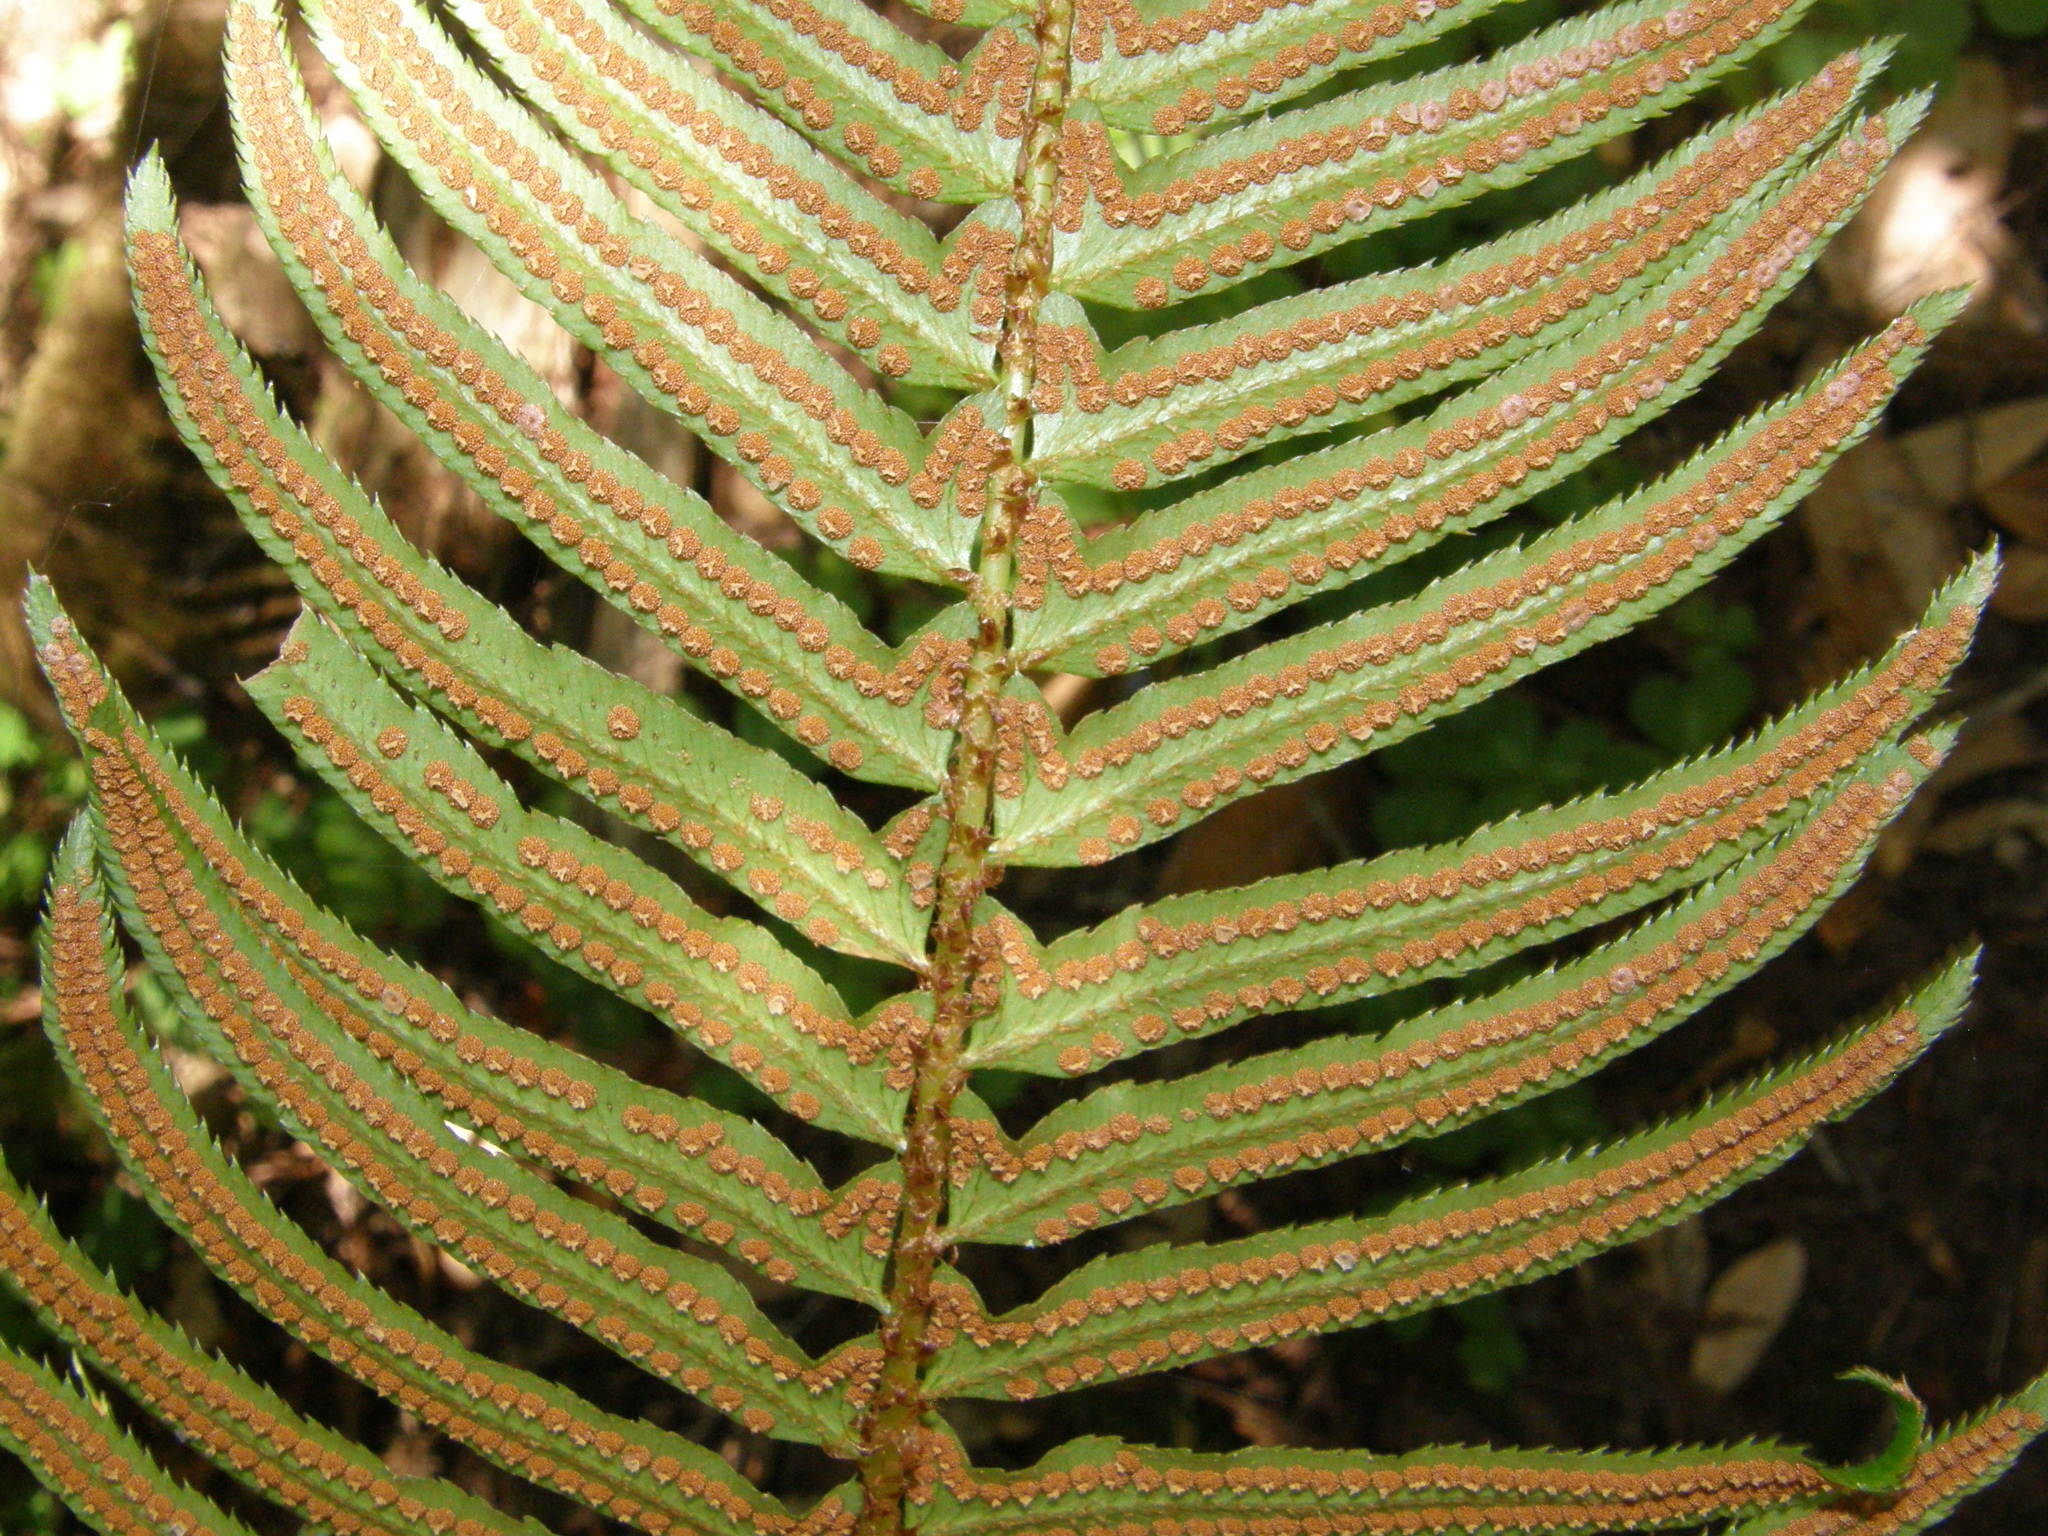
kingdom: Plantae
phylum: Tracheophyta
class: Polypodiopsida
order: Polypodiales
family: Dryopteridaceae
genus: Polystichum
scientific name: Polystichum munitum
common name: Western sword-fern
